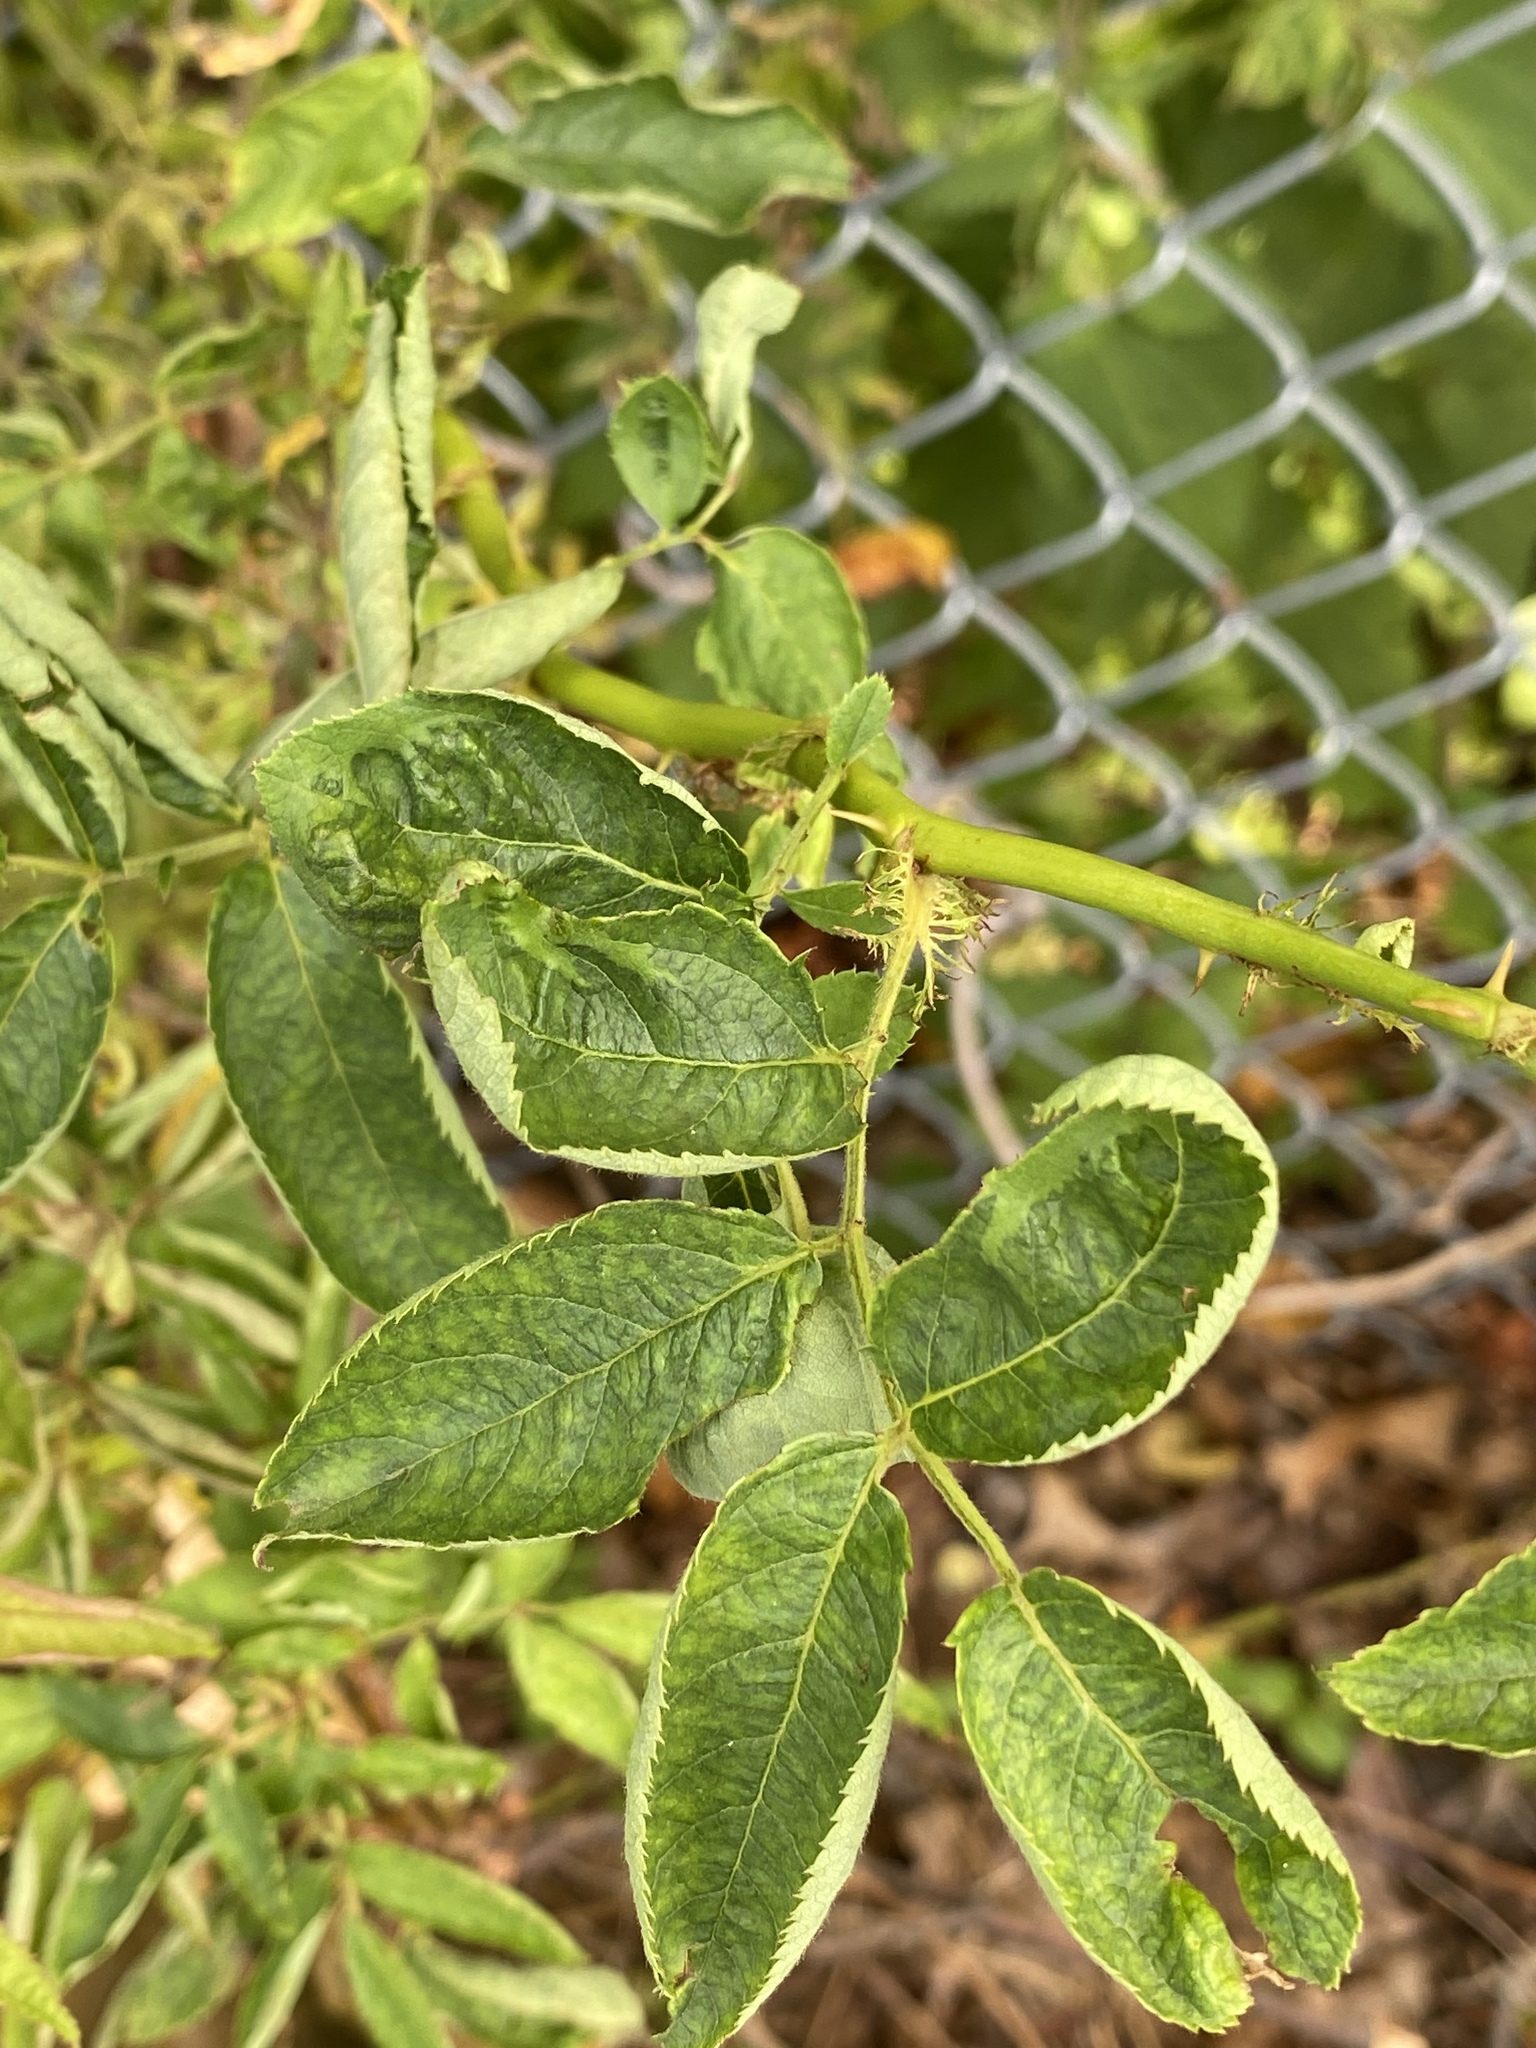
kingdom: Viruses
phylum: Negarnaviricota
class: Ellioviricetes
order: Bunyavirales
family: Fimoviridae
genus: Emaravirus
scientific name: Emaravirus rosae
